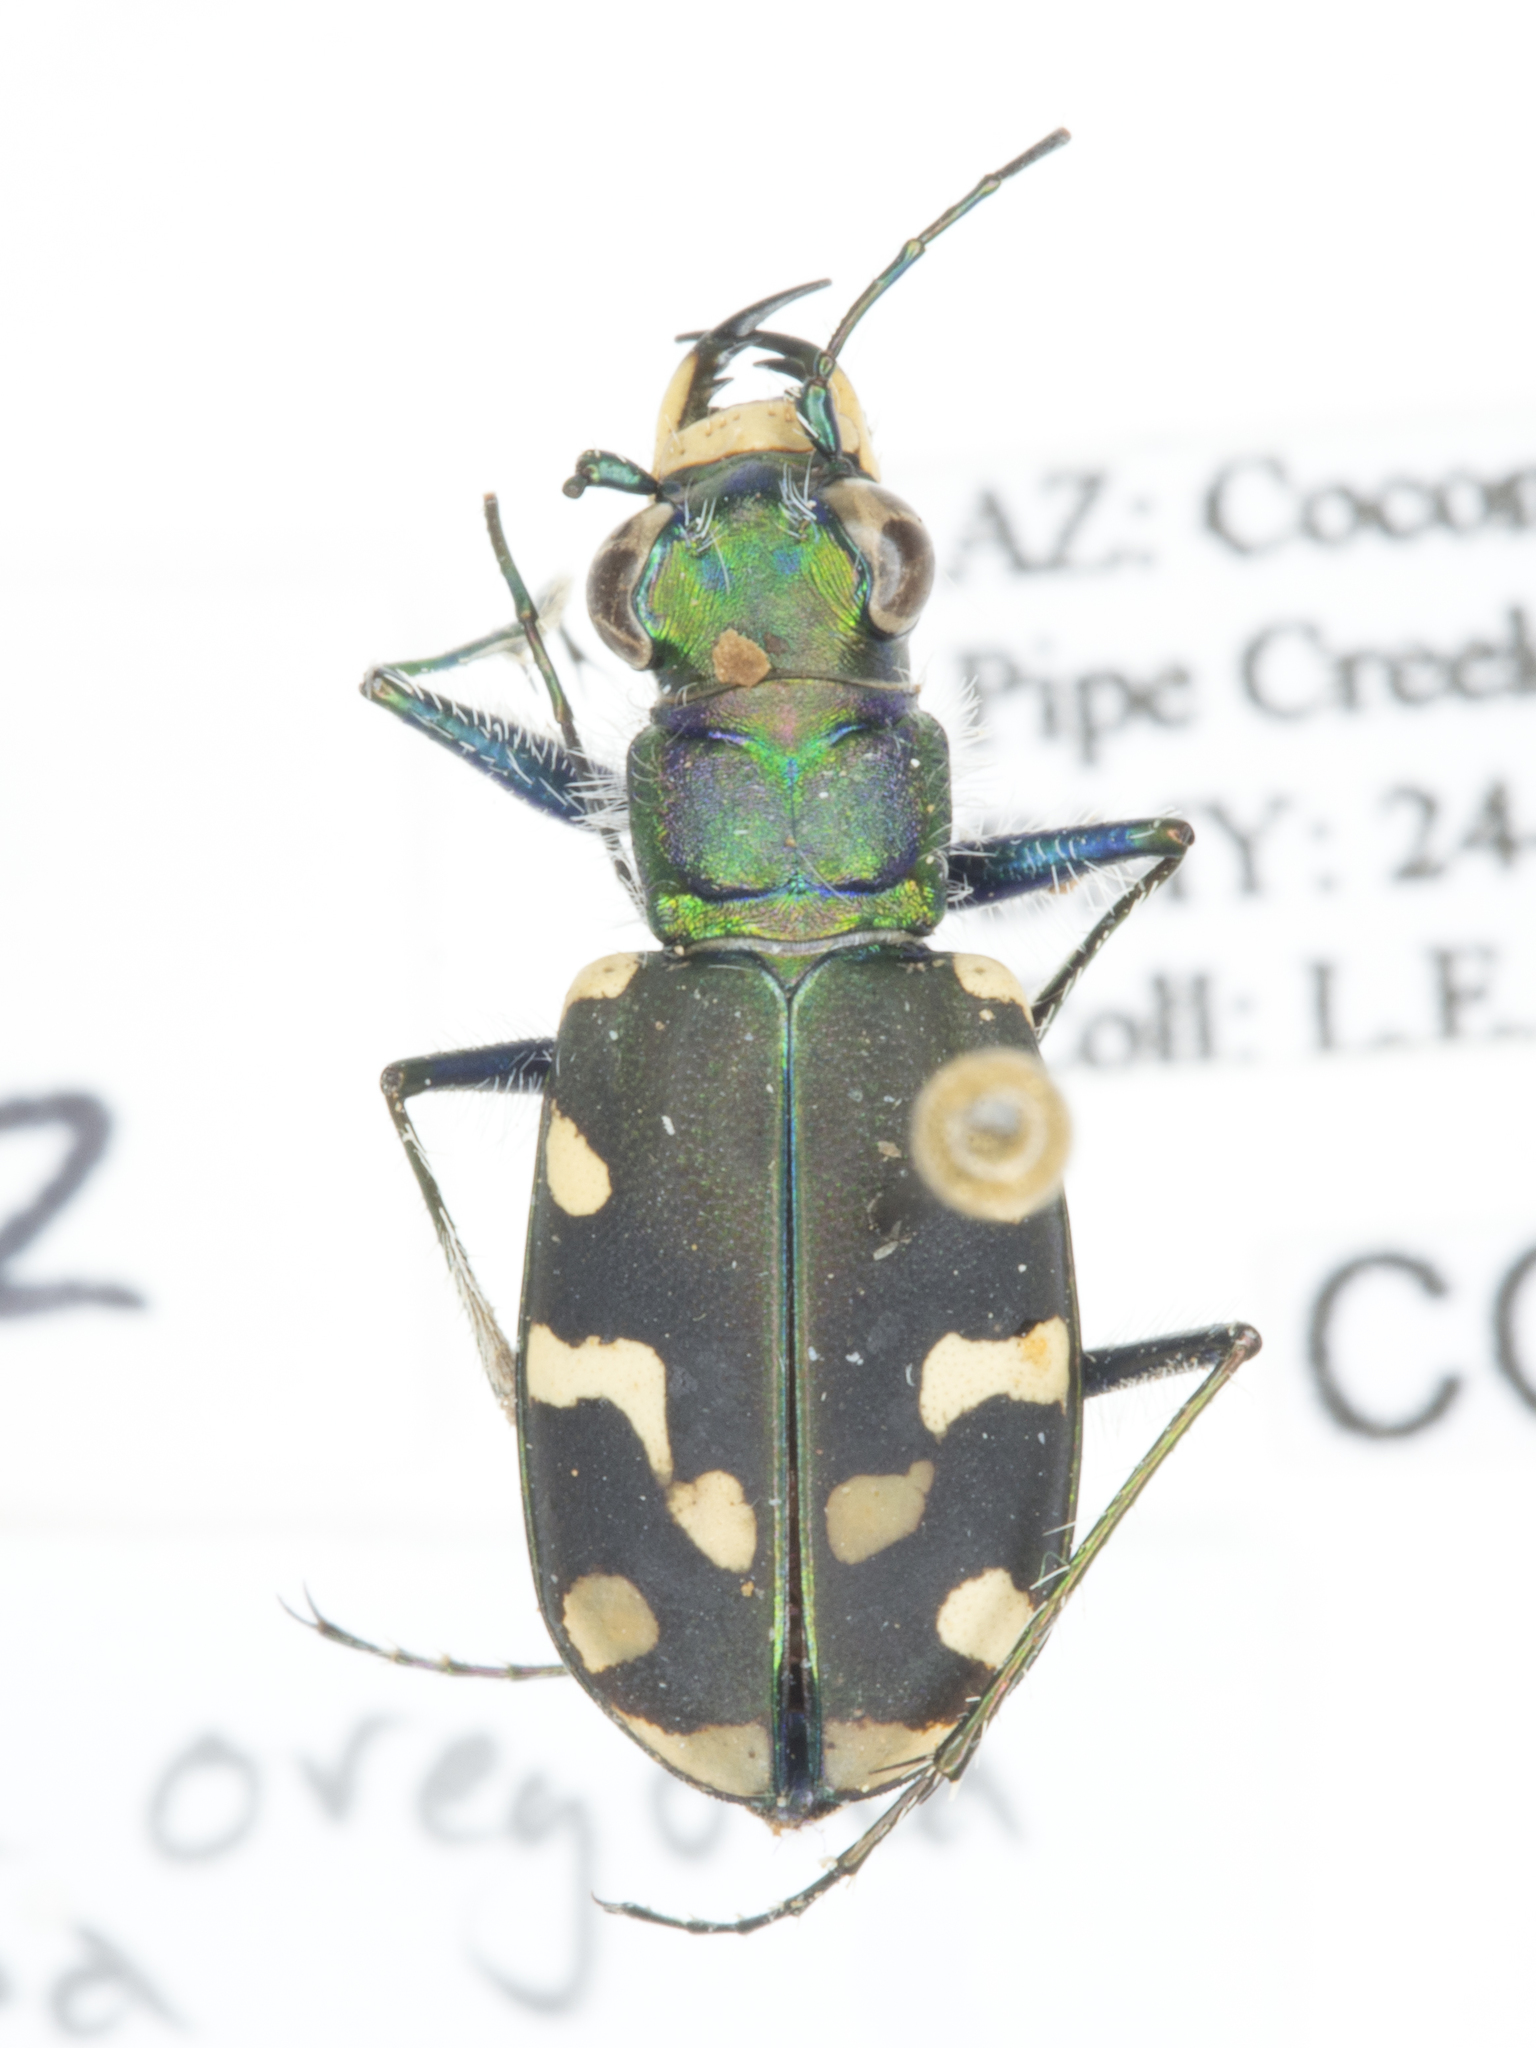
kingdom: Animalia
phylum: Arthropoda
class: Insecta
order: Coleoptera
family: Carabidae
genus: Cicindela
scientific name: Cicindela oregona
